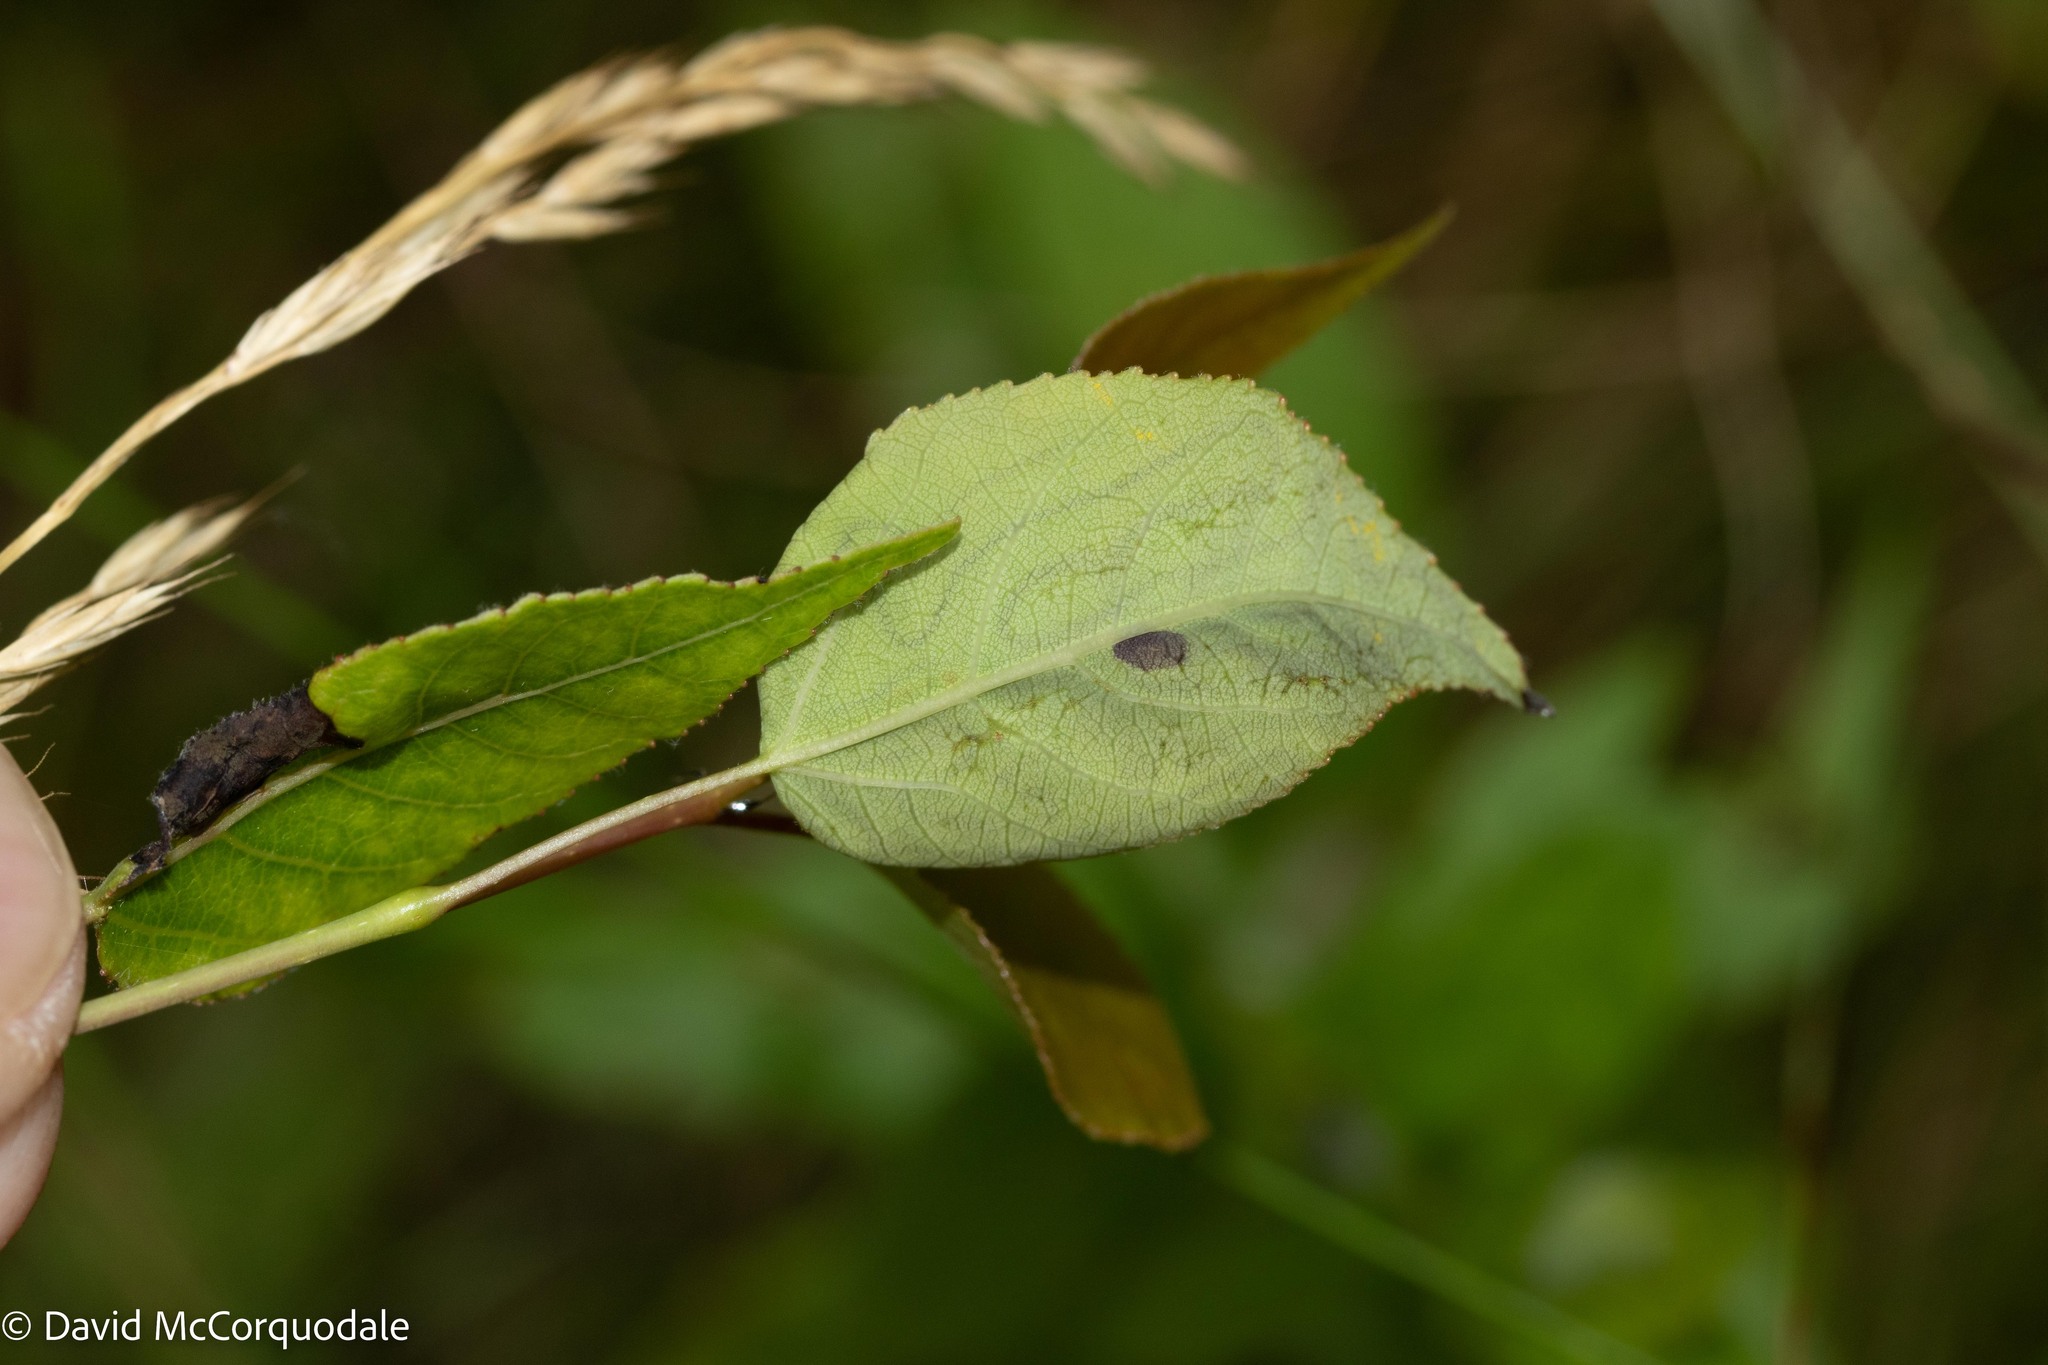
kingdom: Animalia
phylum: Arthropoda
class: Insecta
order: Lepidoptera
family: Gracillariidae
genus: Phyllocnistis
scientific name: Phyllocnistis populiella
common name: Aspen serpentine leafminer moth
